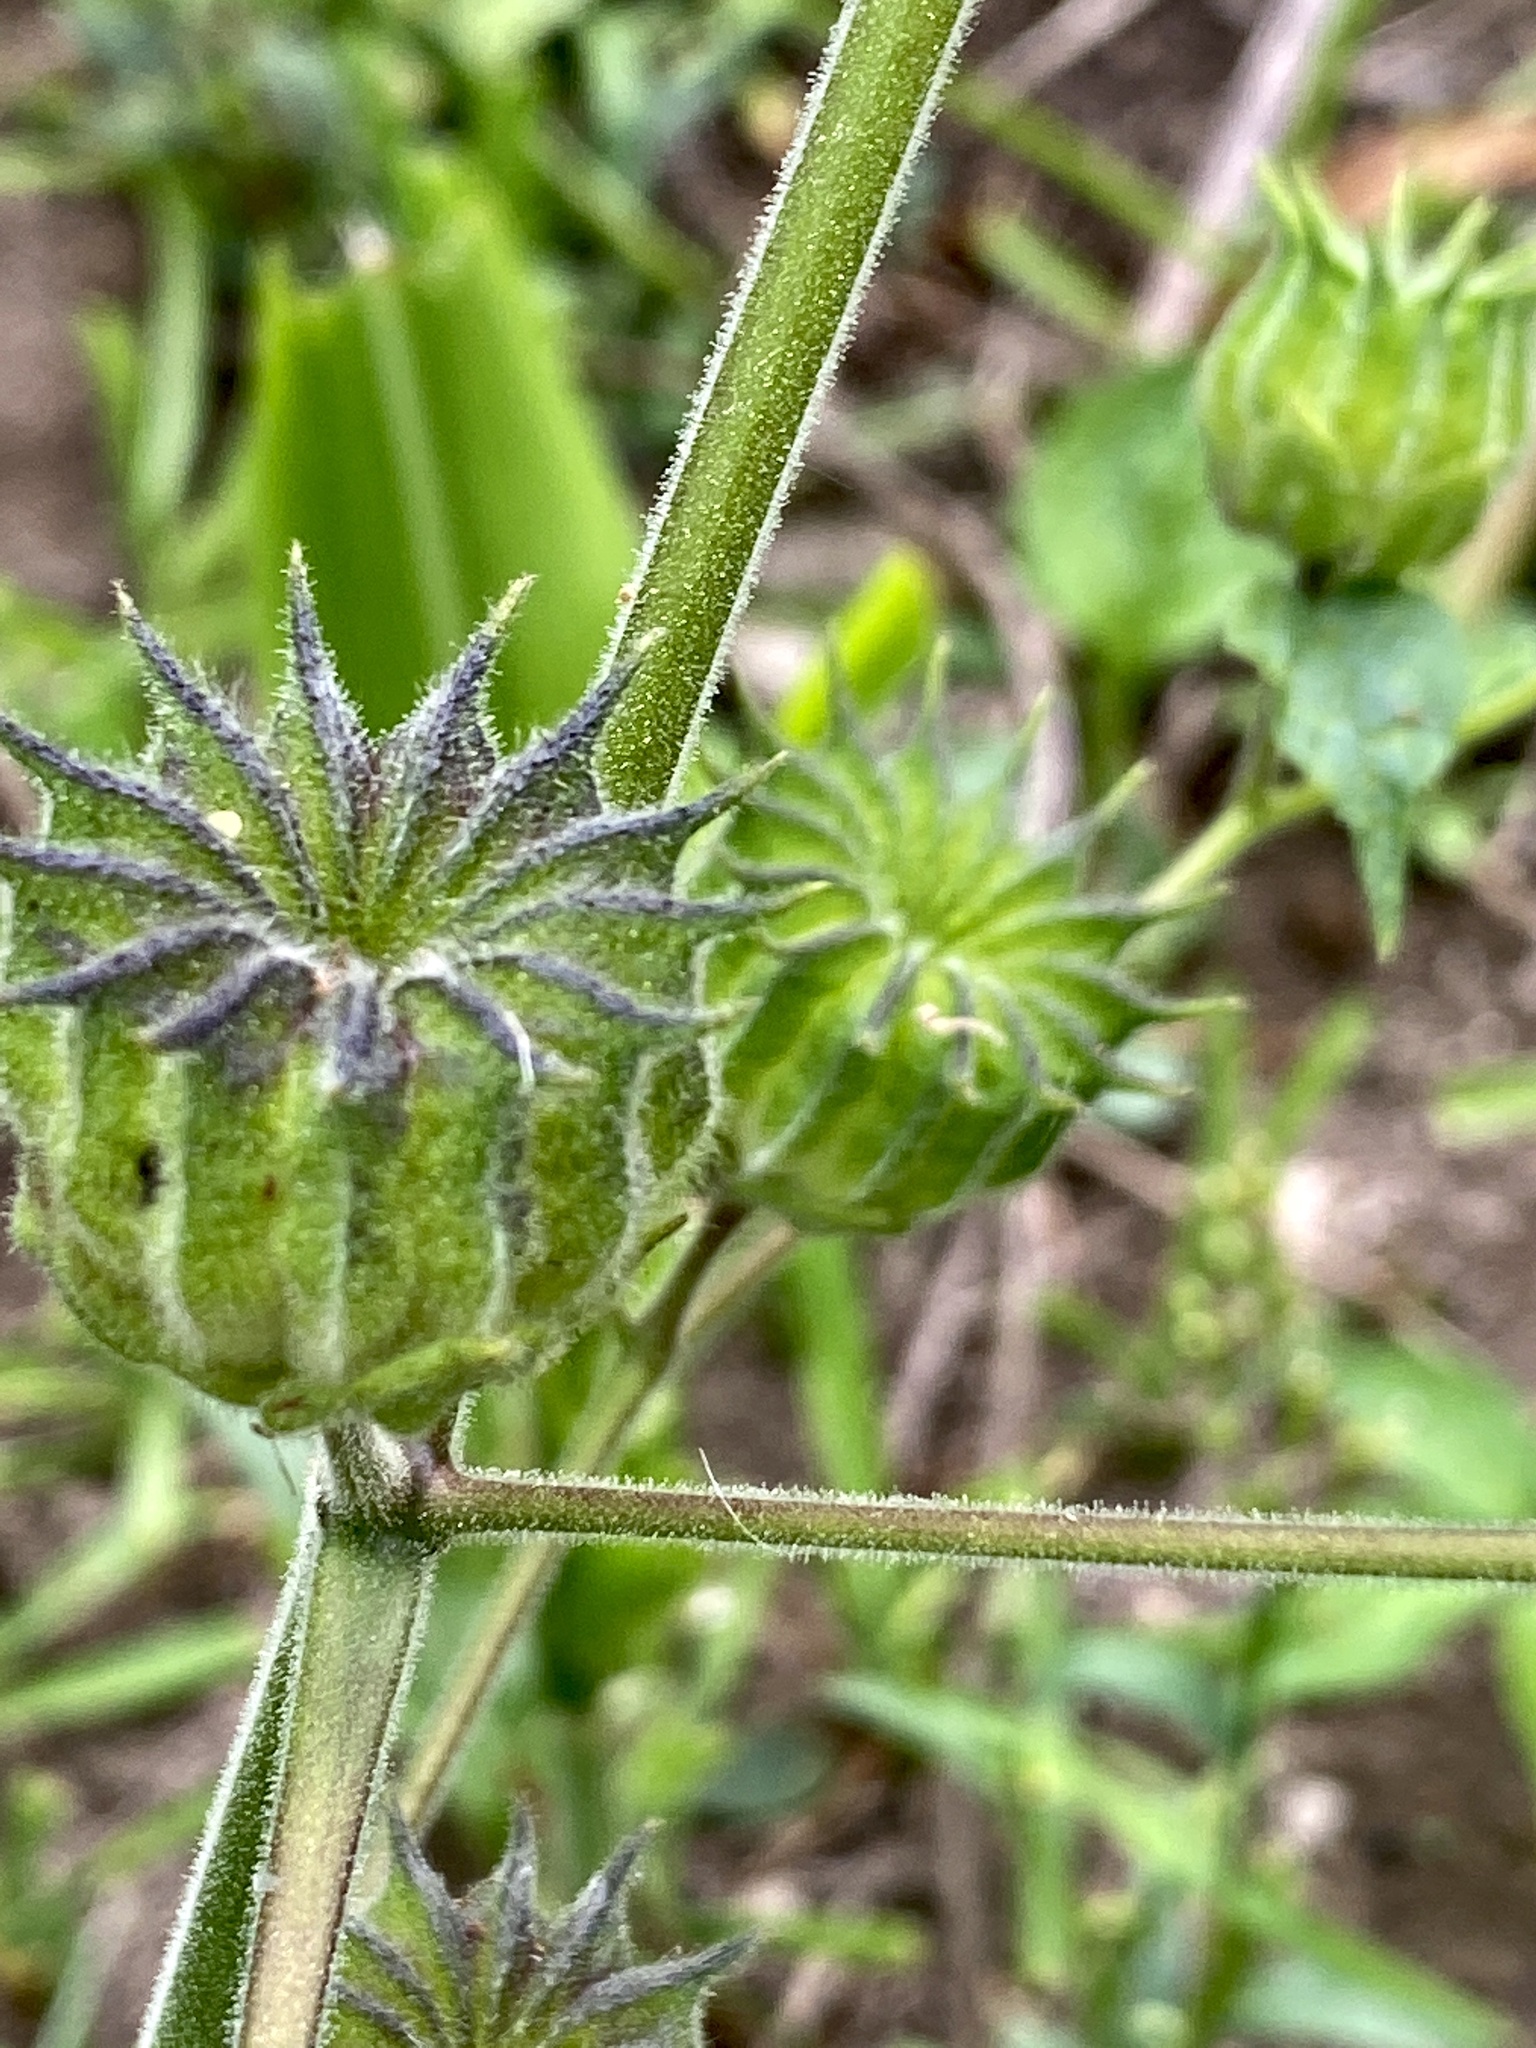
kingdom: Plantae
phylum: Tracheophyta
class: Magnoliopsida
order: Malvales
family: Malvaceae
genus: Abutilon
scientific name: Abutilon theophrasti
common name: Velvetleaf
